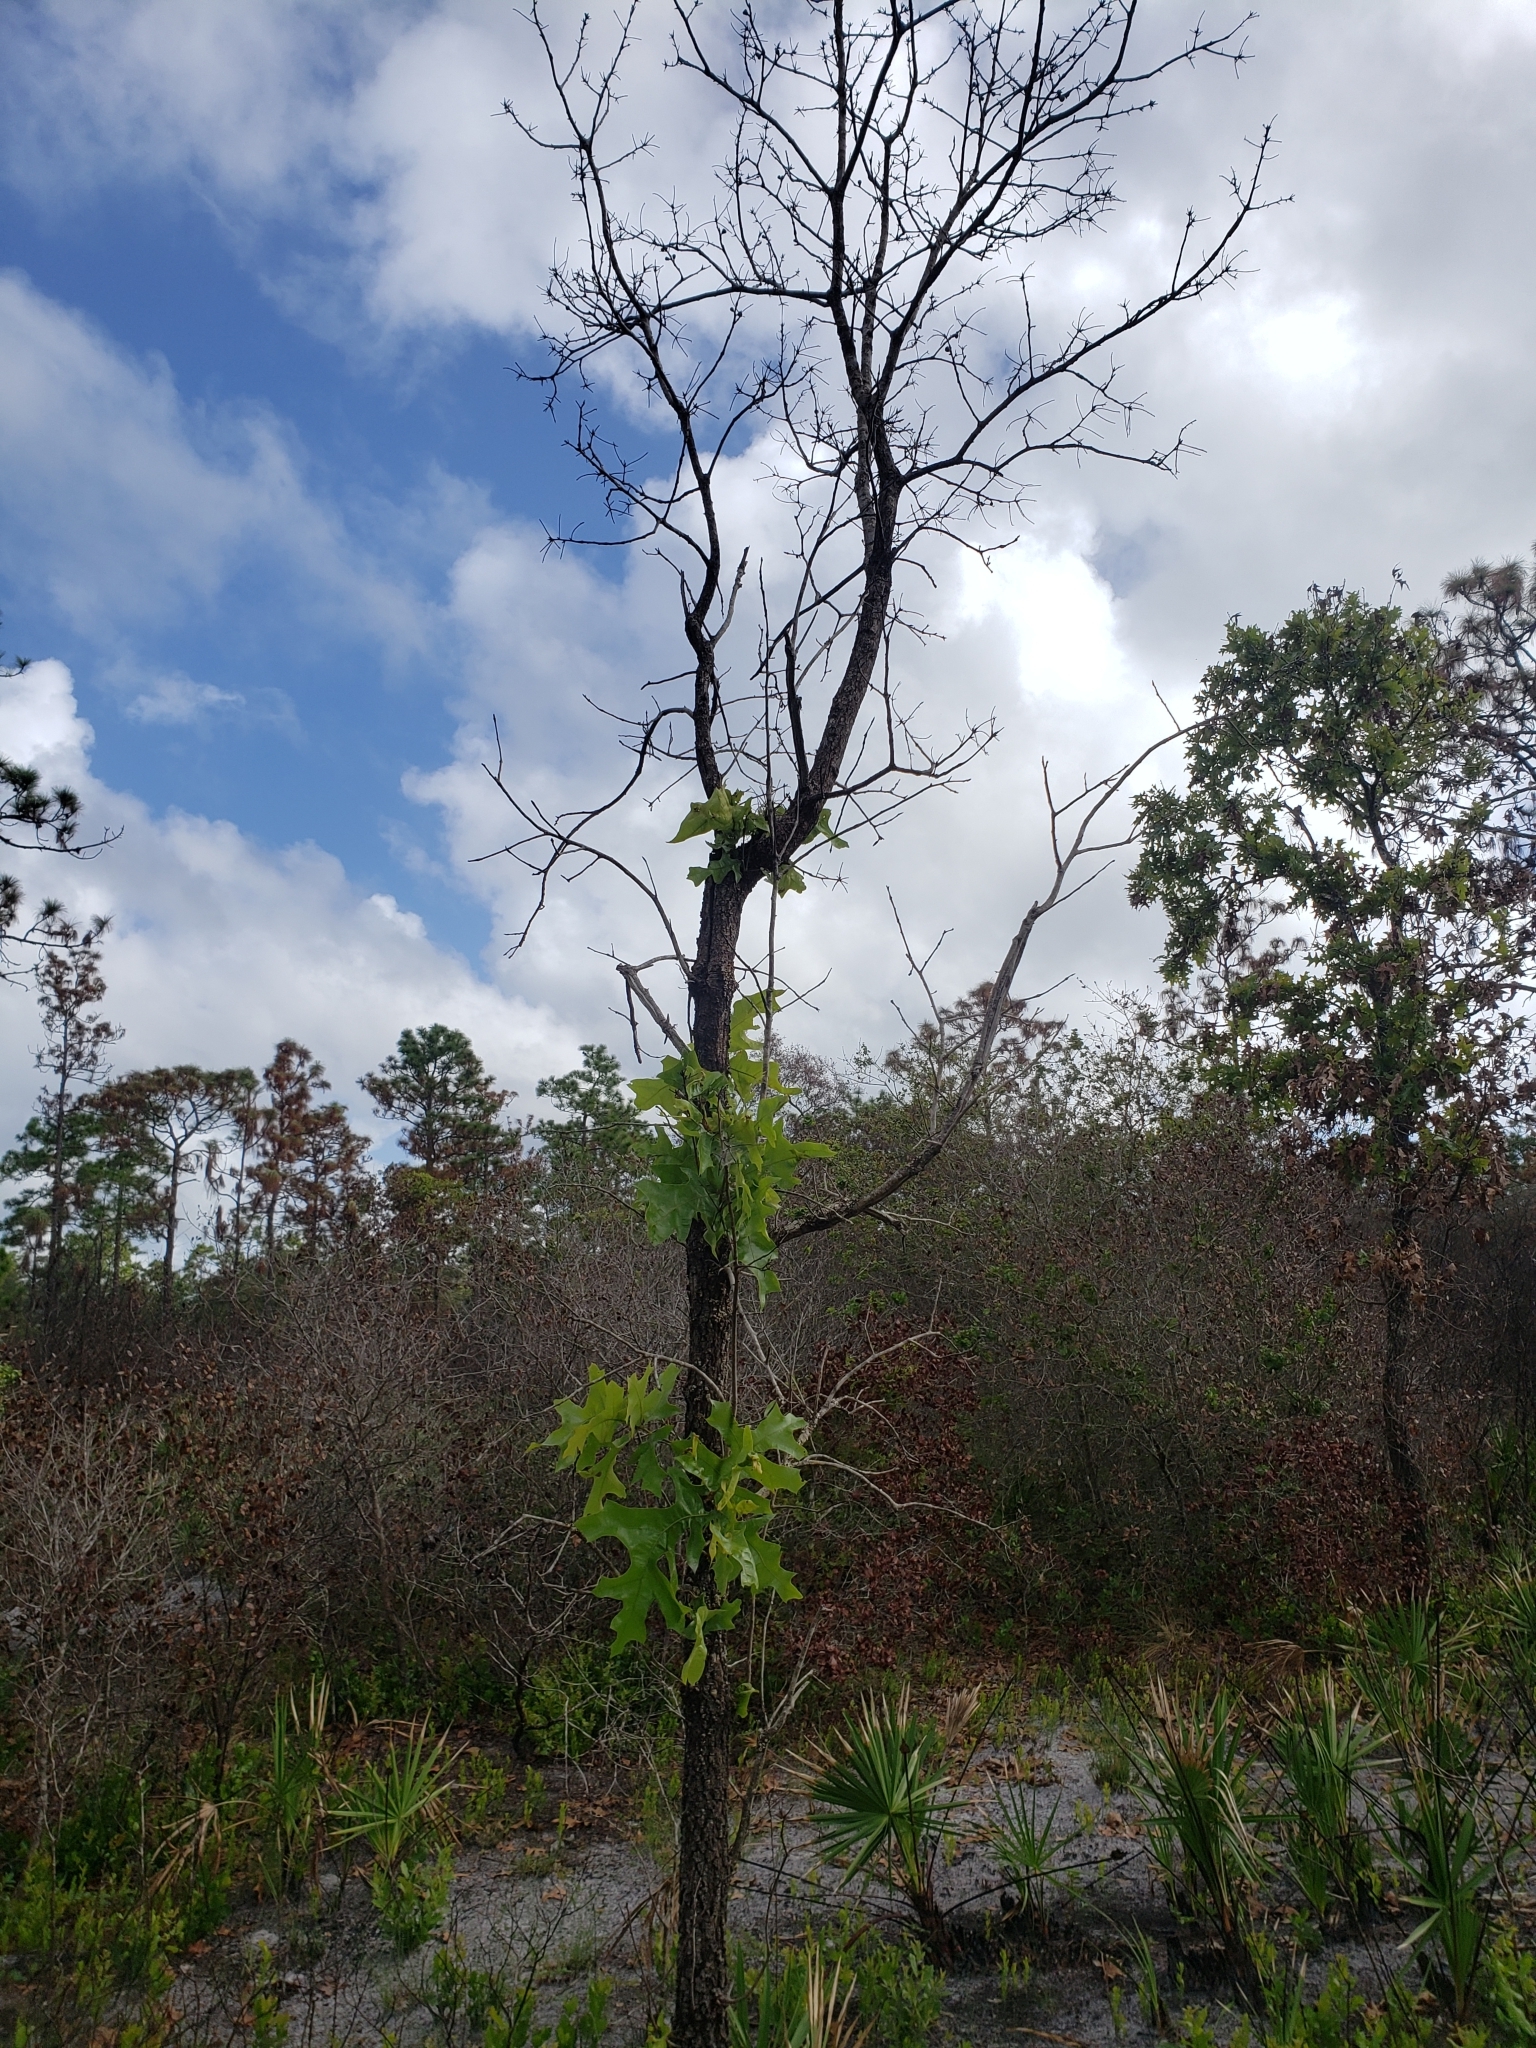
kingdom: Plantae
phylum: Tracheophyta
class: Magnoliopsida
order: Fagales
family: Fagaceae
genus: Quercus
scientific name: Quercus laevis
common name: Turkey oak
